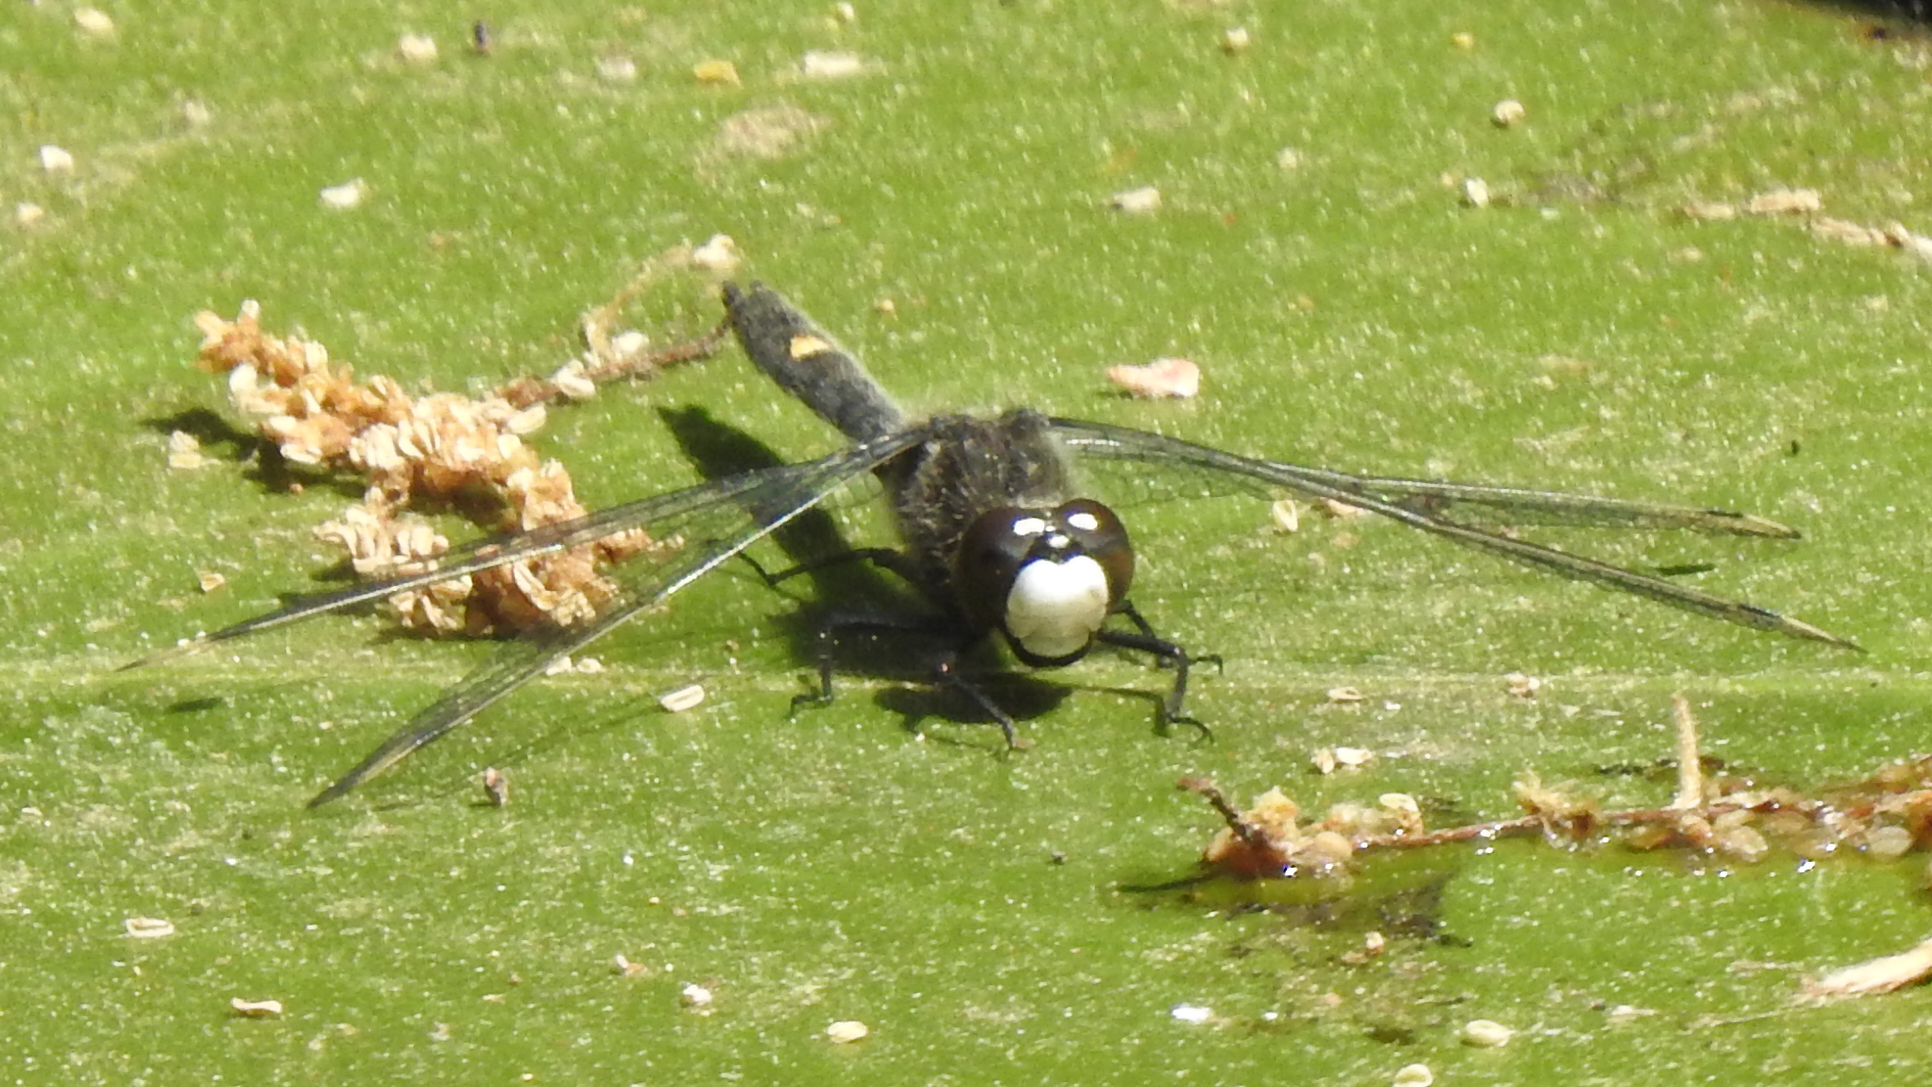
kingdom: Animalia
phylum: Arthropoda
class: Insecta
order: Odonata
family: Libellulidae
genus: Leucorrhinia
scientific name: Leucorrhinia intacta
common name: Dot-tailed whiteface
